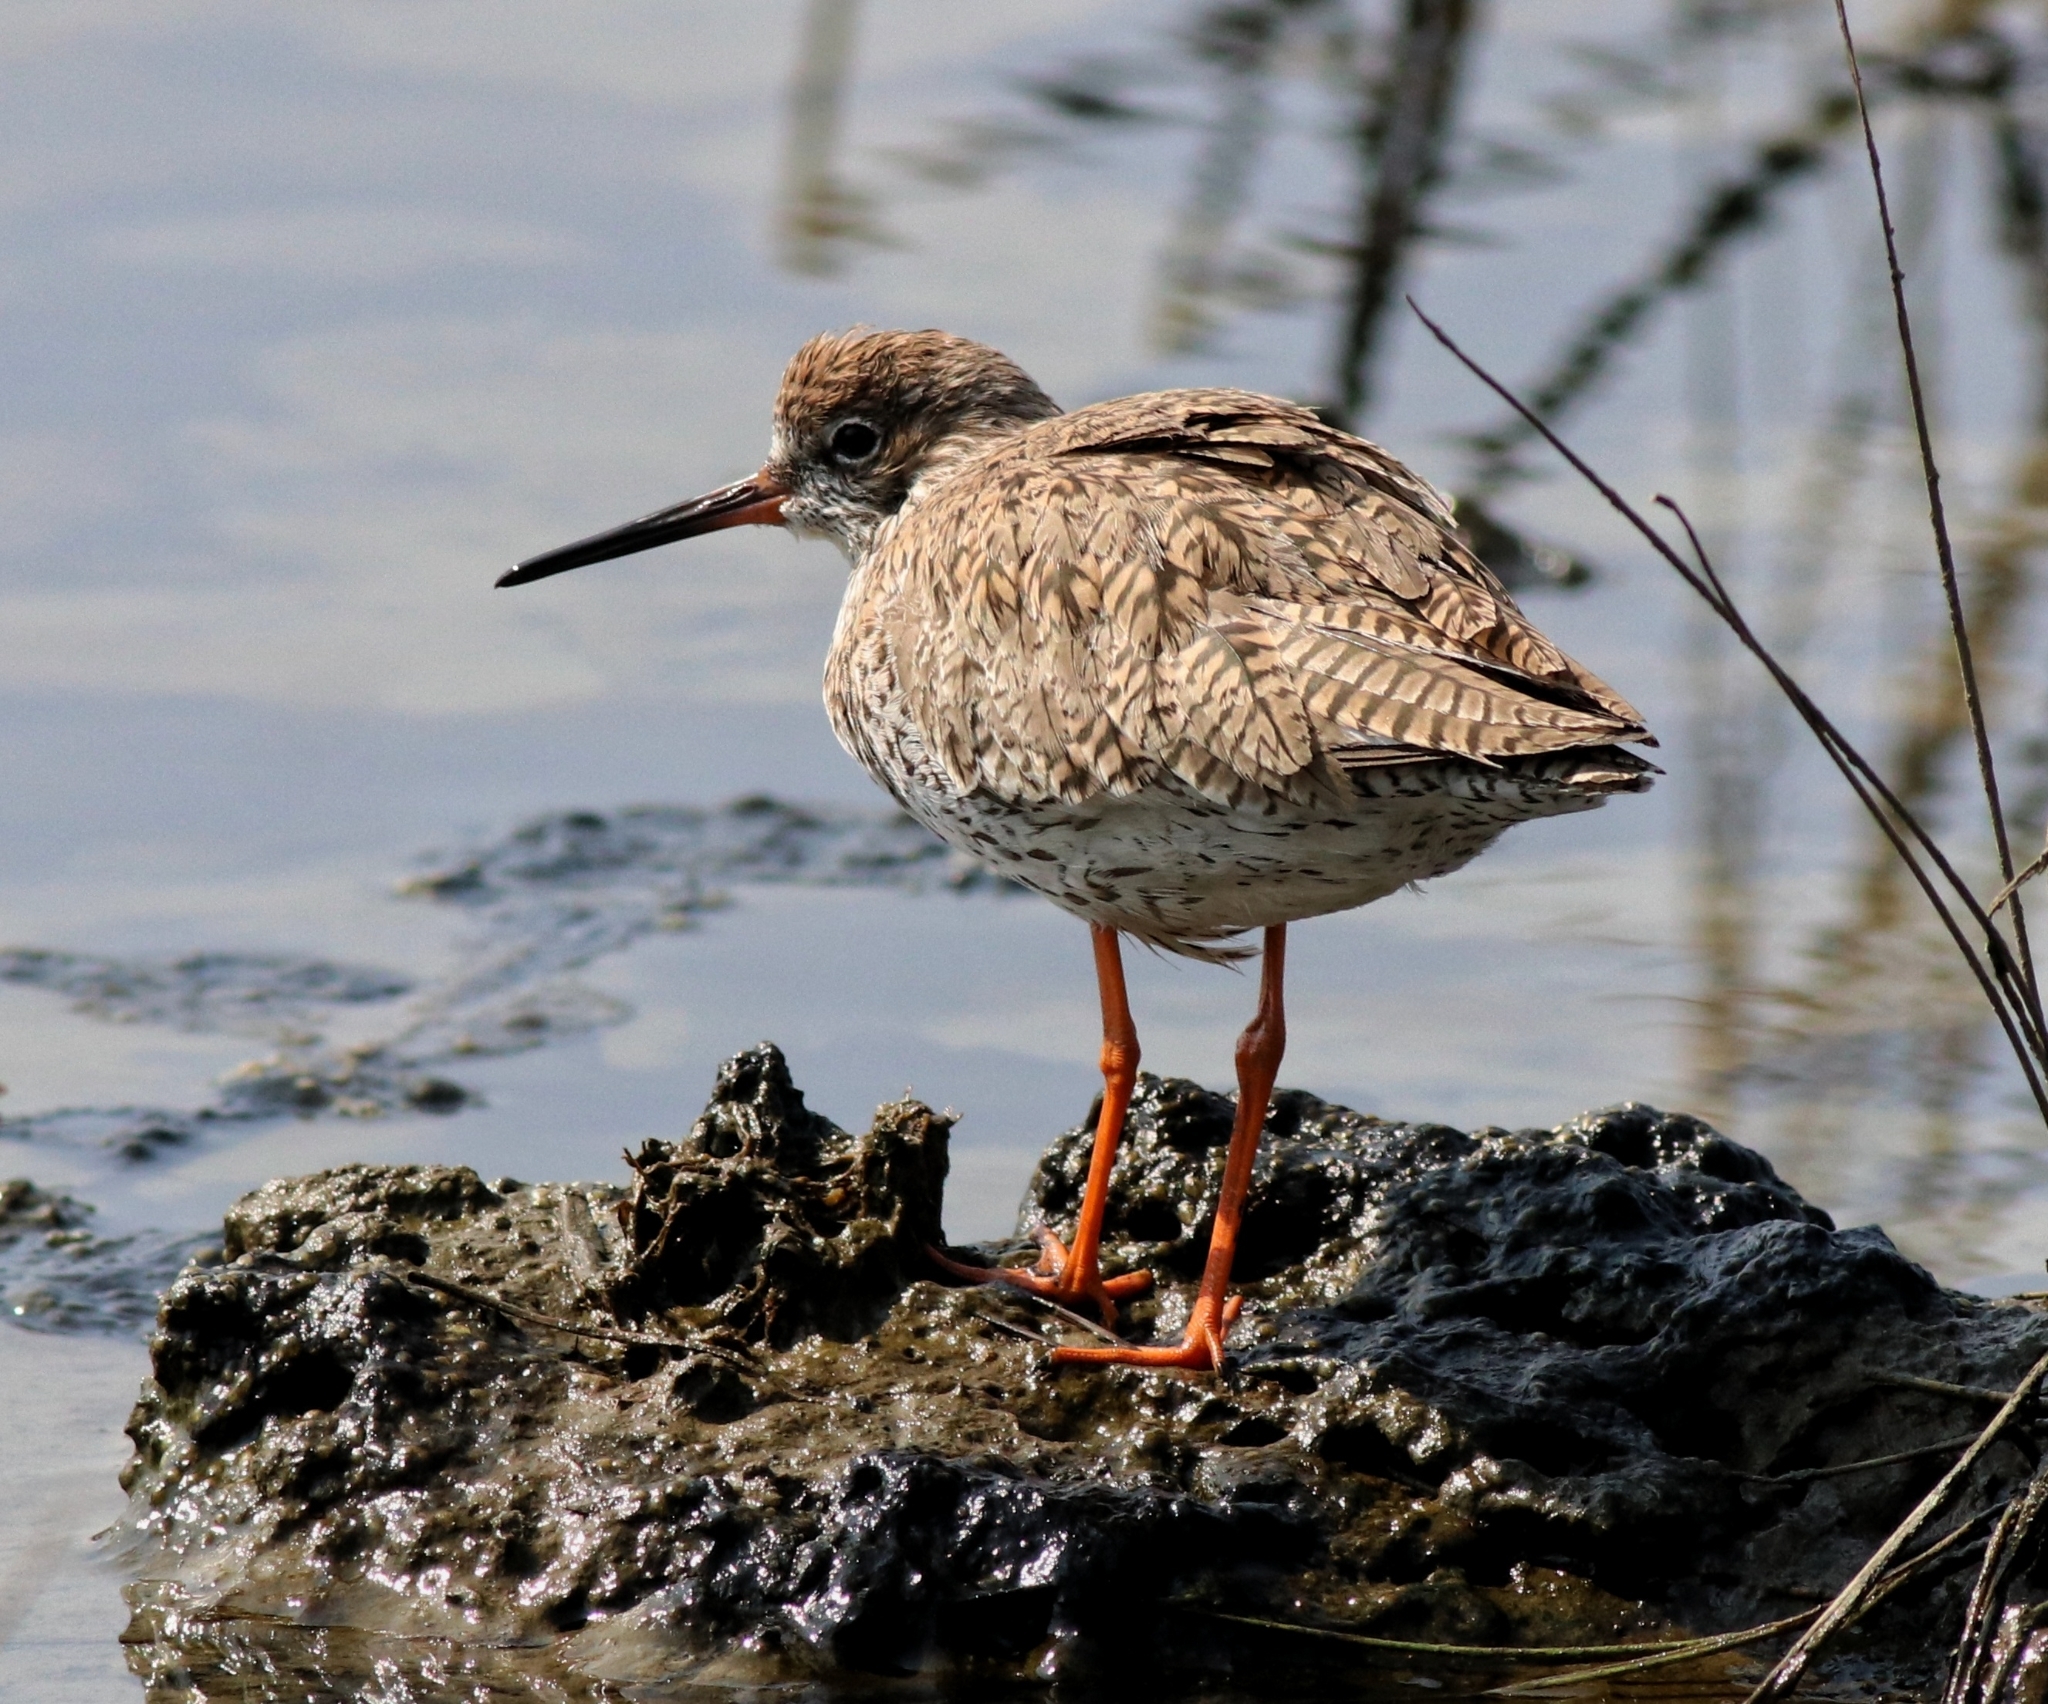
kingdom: Animalia
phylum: Chordata
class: Aves
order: Charadriiformes
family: Scolopacidae
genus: Tringa
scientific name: Tringa totanus
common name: Common redshank
